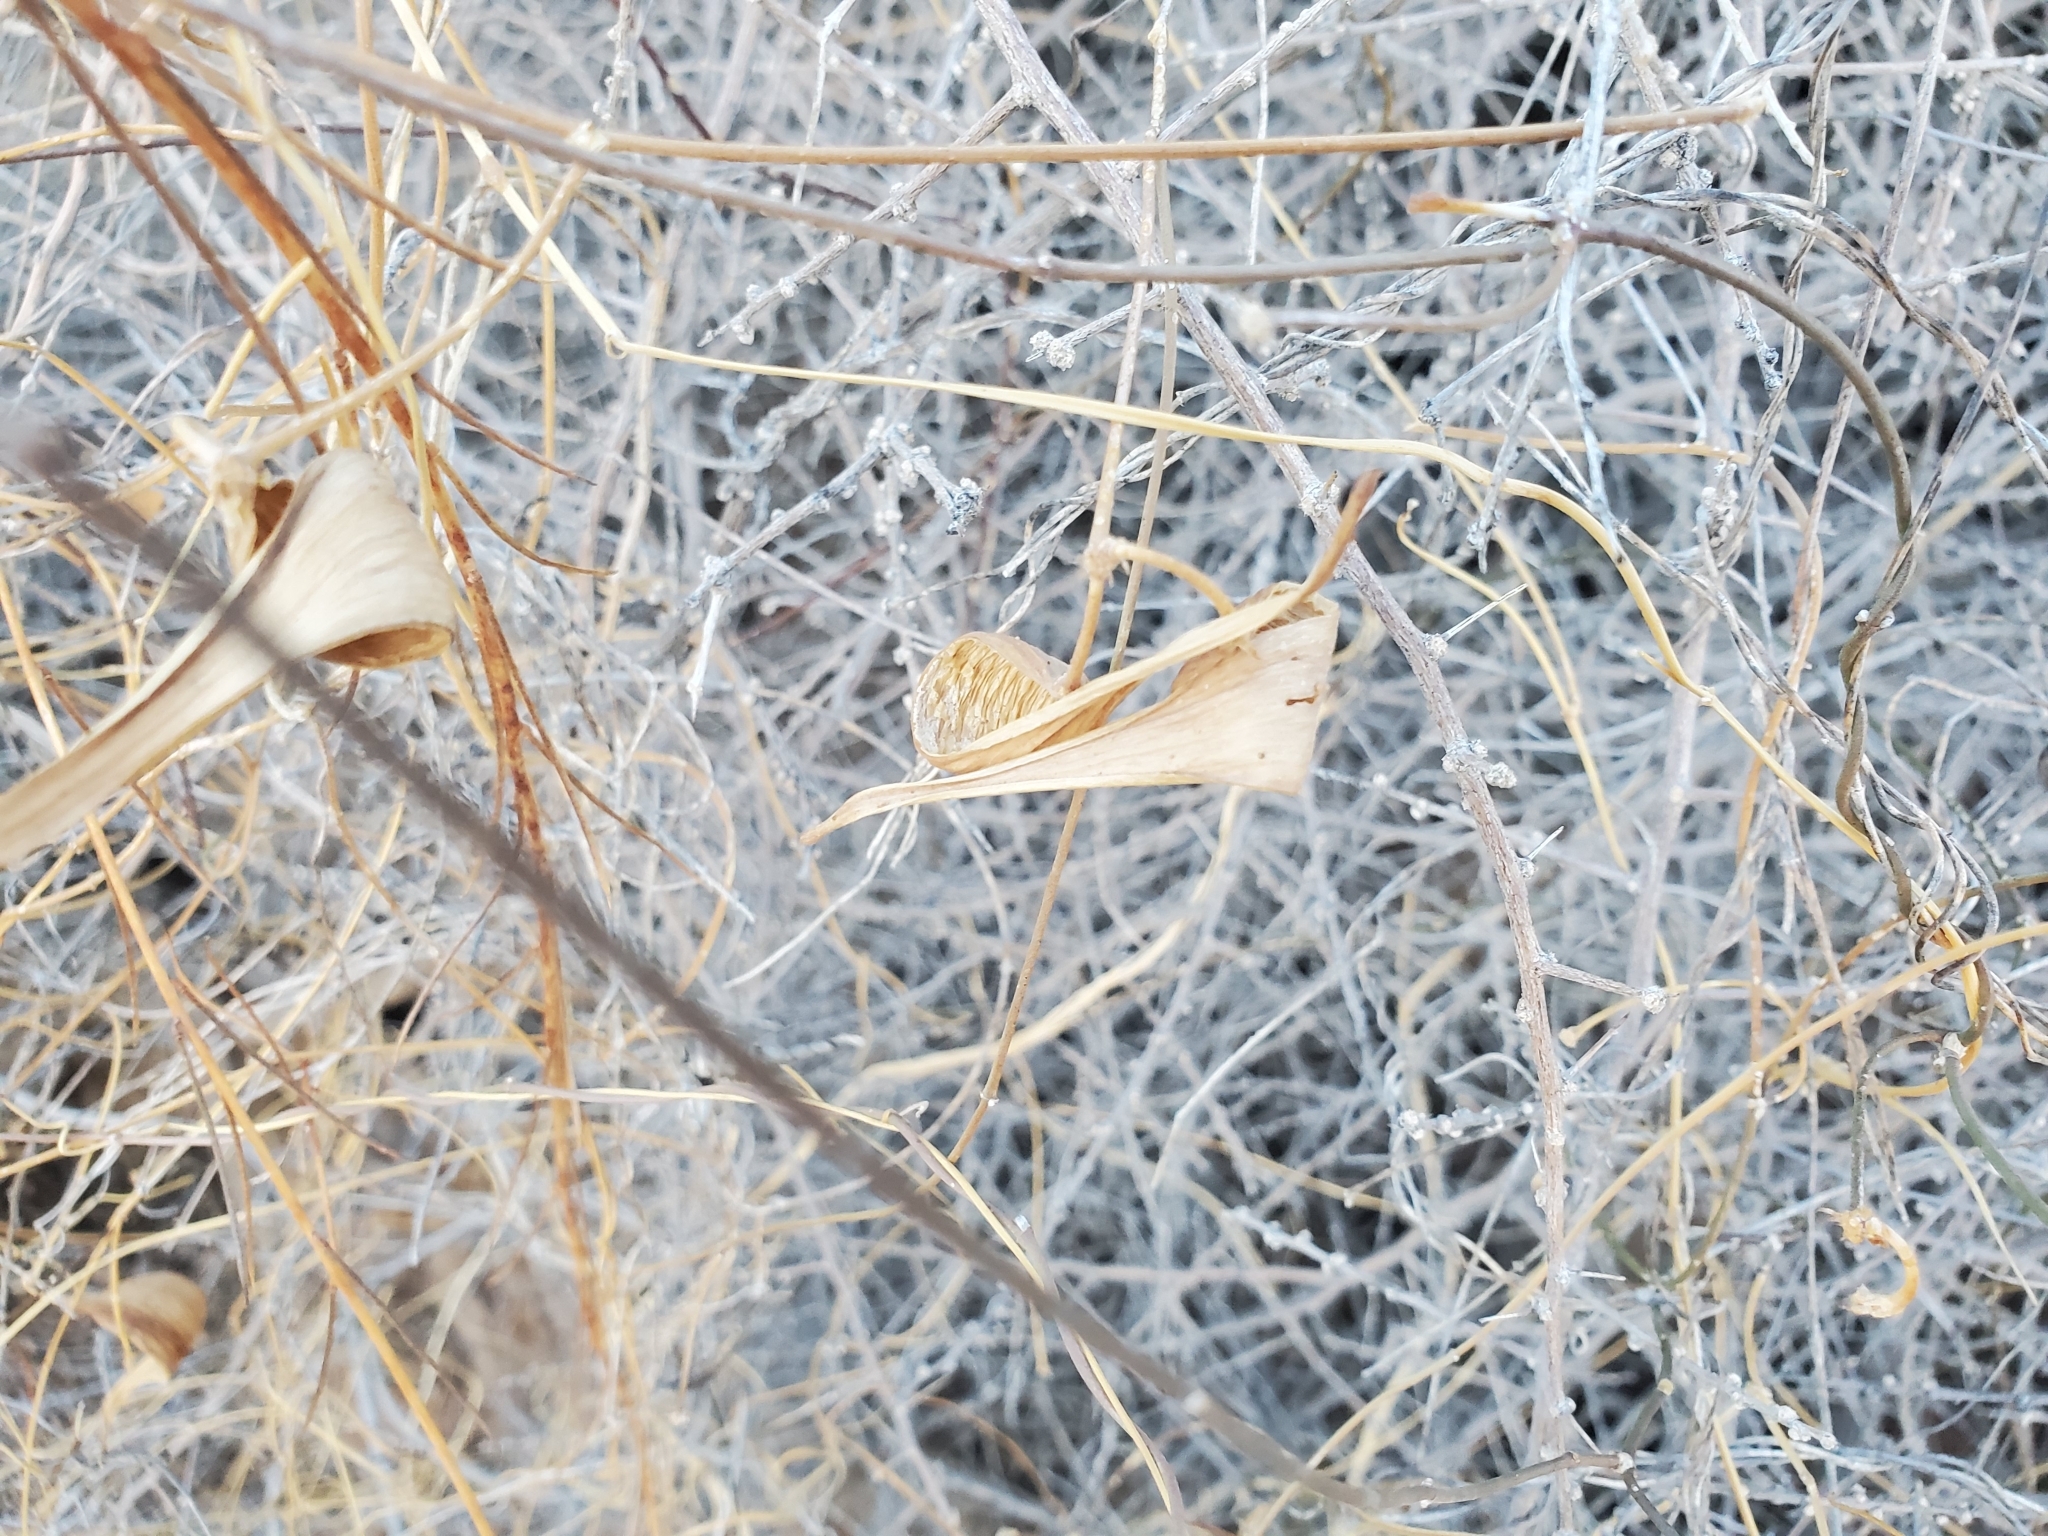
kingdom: Plantae
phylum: Tracheophyta
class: Magnoliopsida
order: Gentianales
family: Apocynaceae
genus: Funastrum
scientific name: Funastrum heterophyllum
